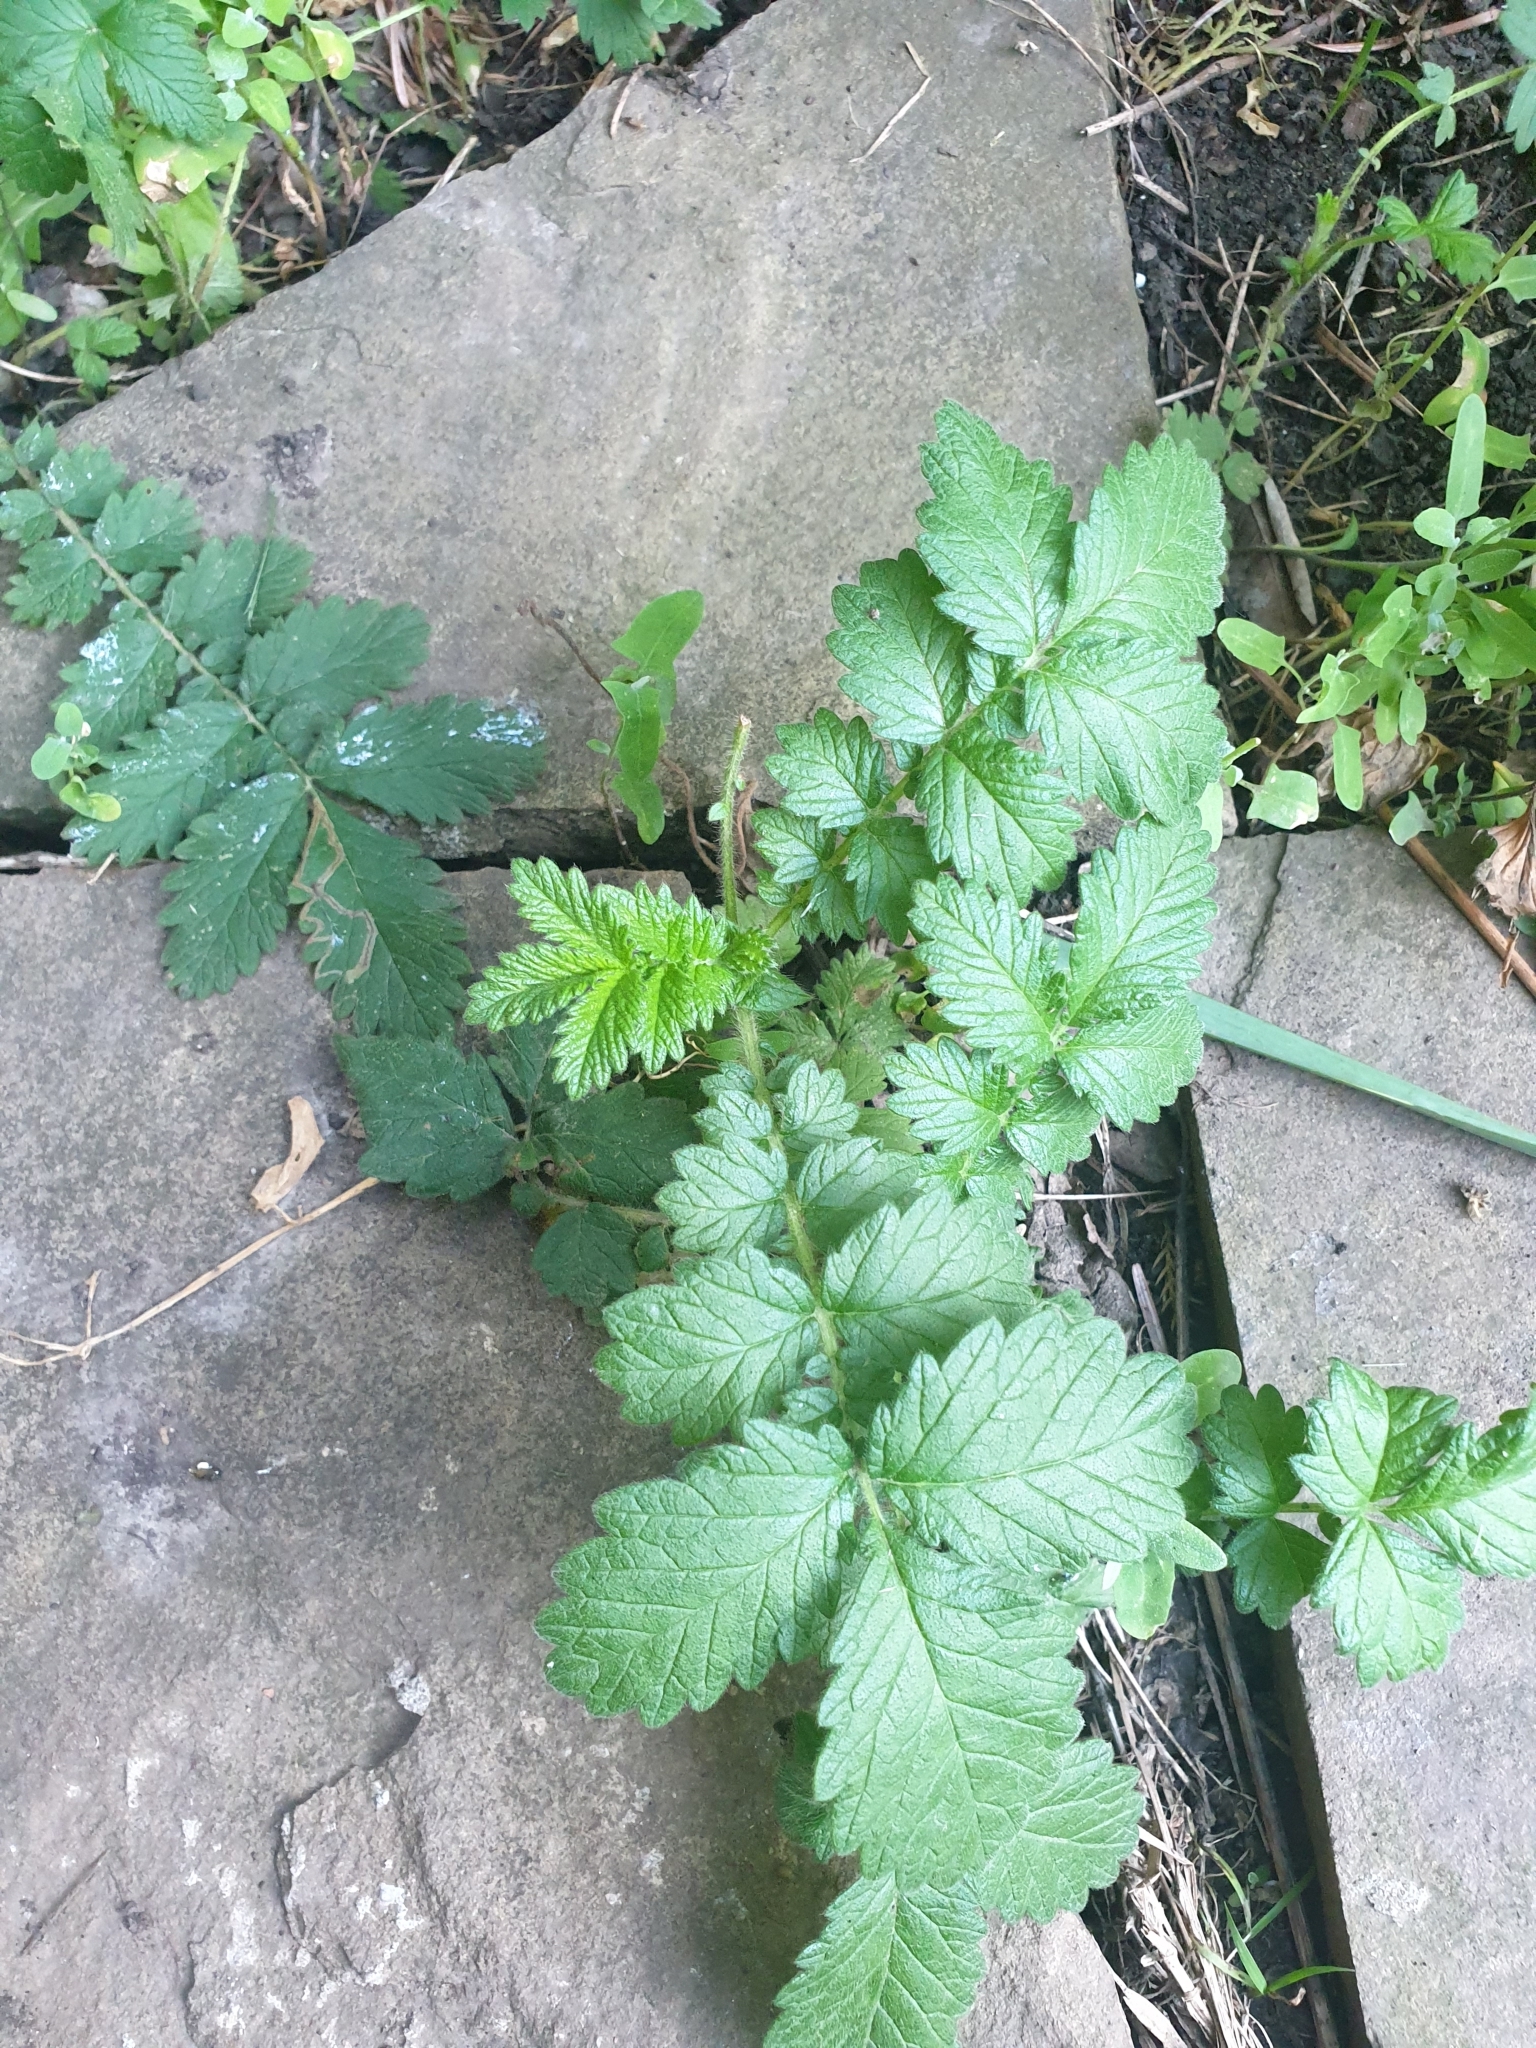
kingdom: Plantae
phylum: Tracheophyta
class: Magnoliopsida
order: Rosales
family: Rosaceae
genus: Agrimonia
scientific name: Agrimonia eupatoria
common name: Agrimony
